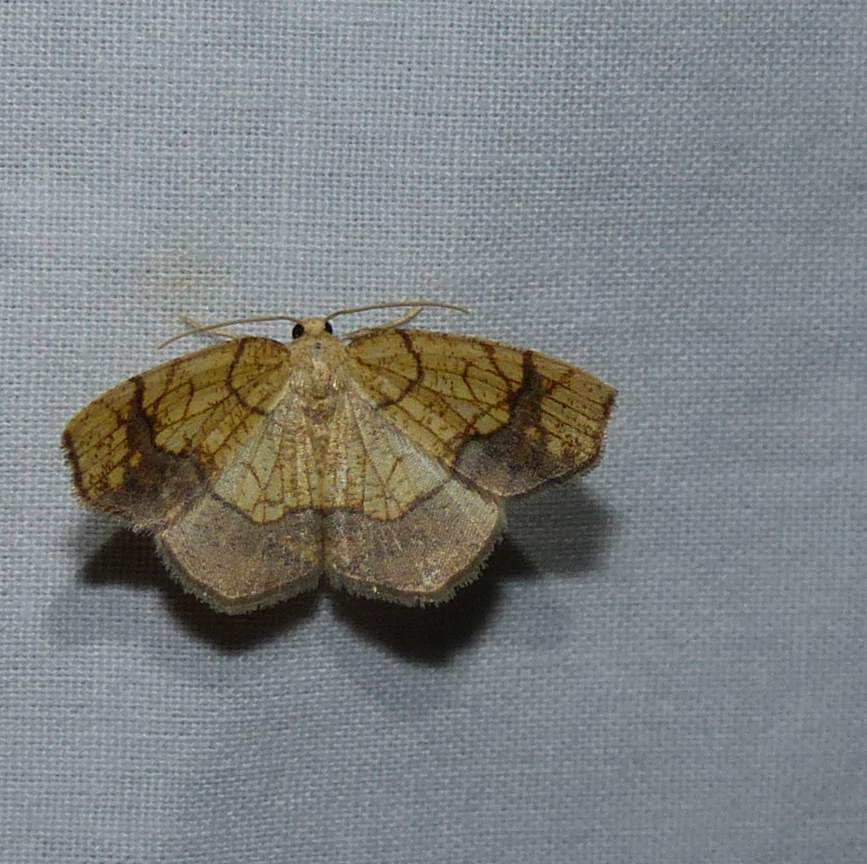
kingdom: Animalia
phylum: Arthropoda
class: Insecta
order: Lepidoptera
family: Geometridae
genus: Nematocampa
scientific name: Nematocampa resistaria
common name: Horned spanworm moth
